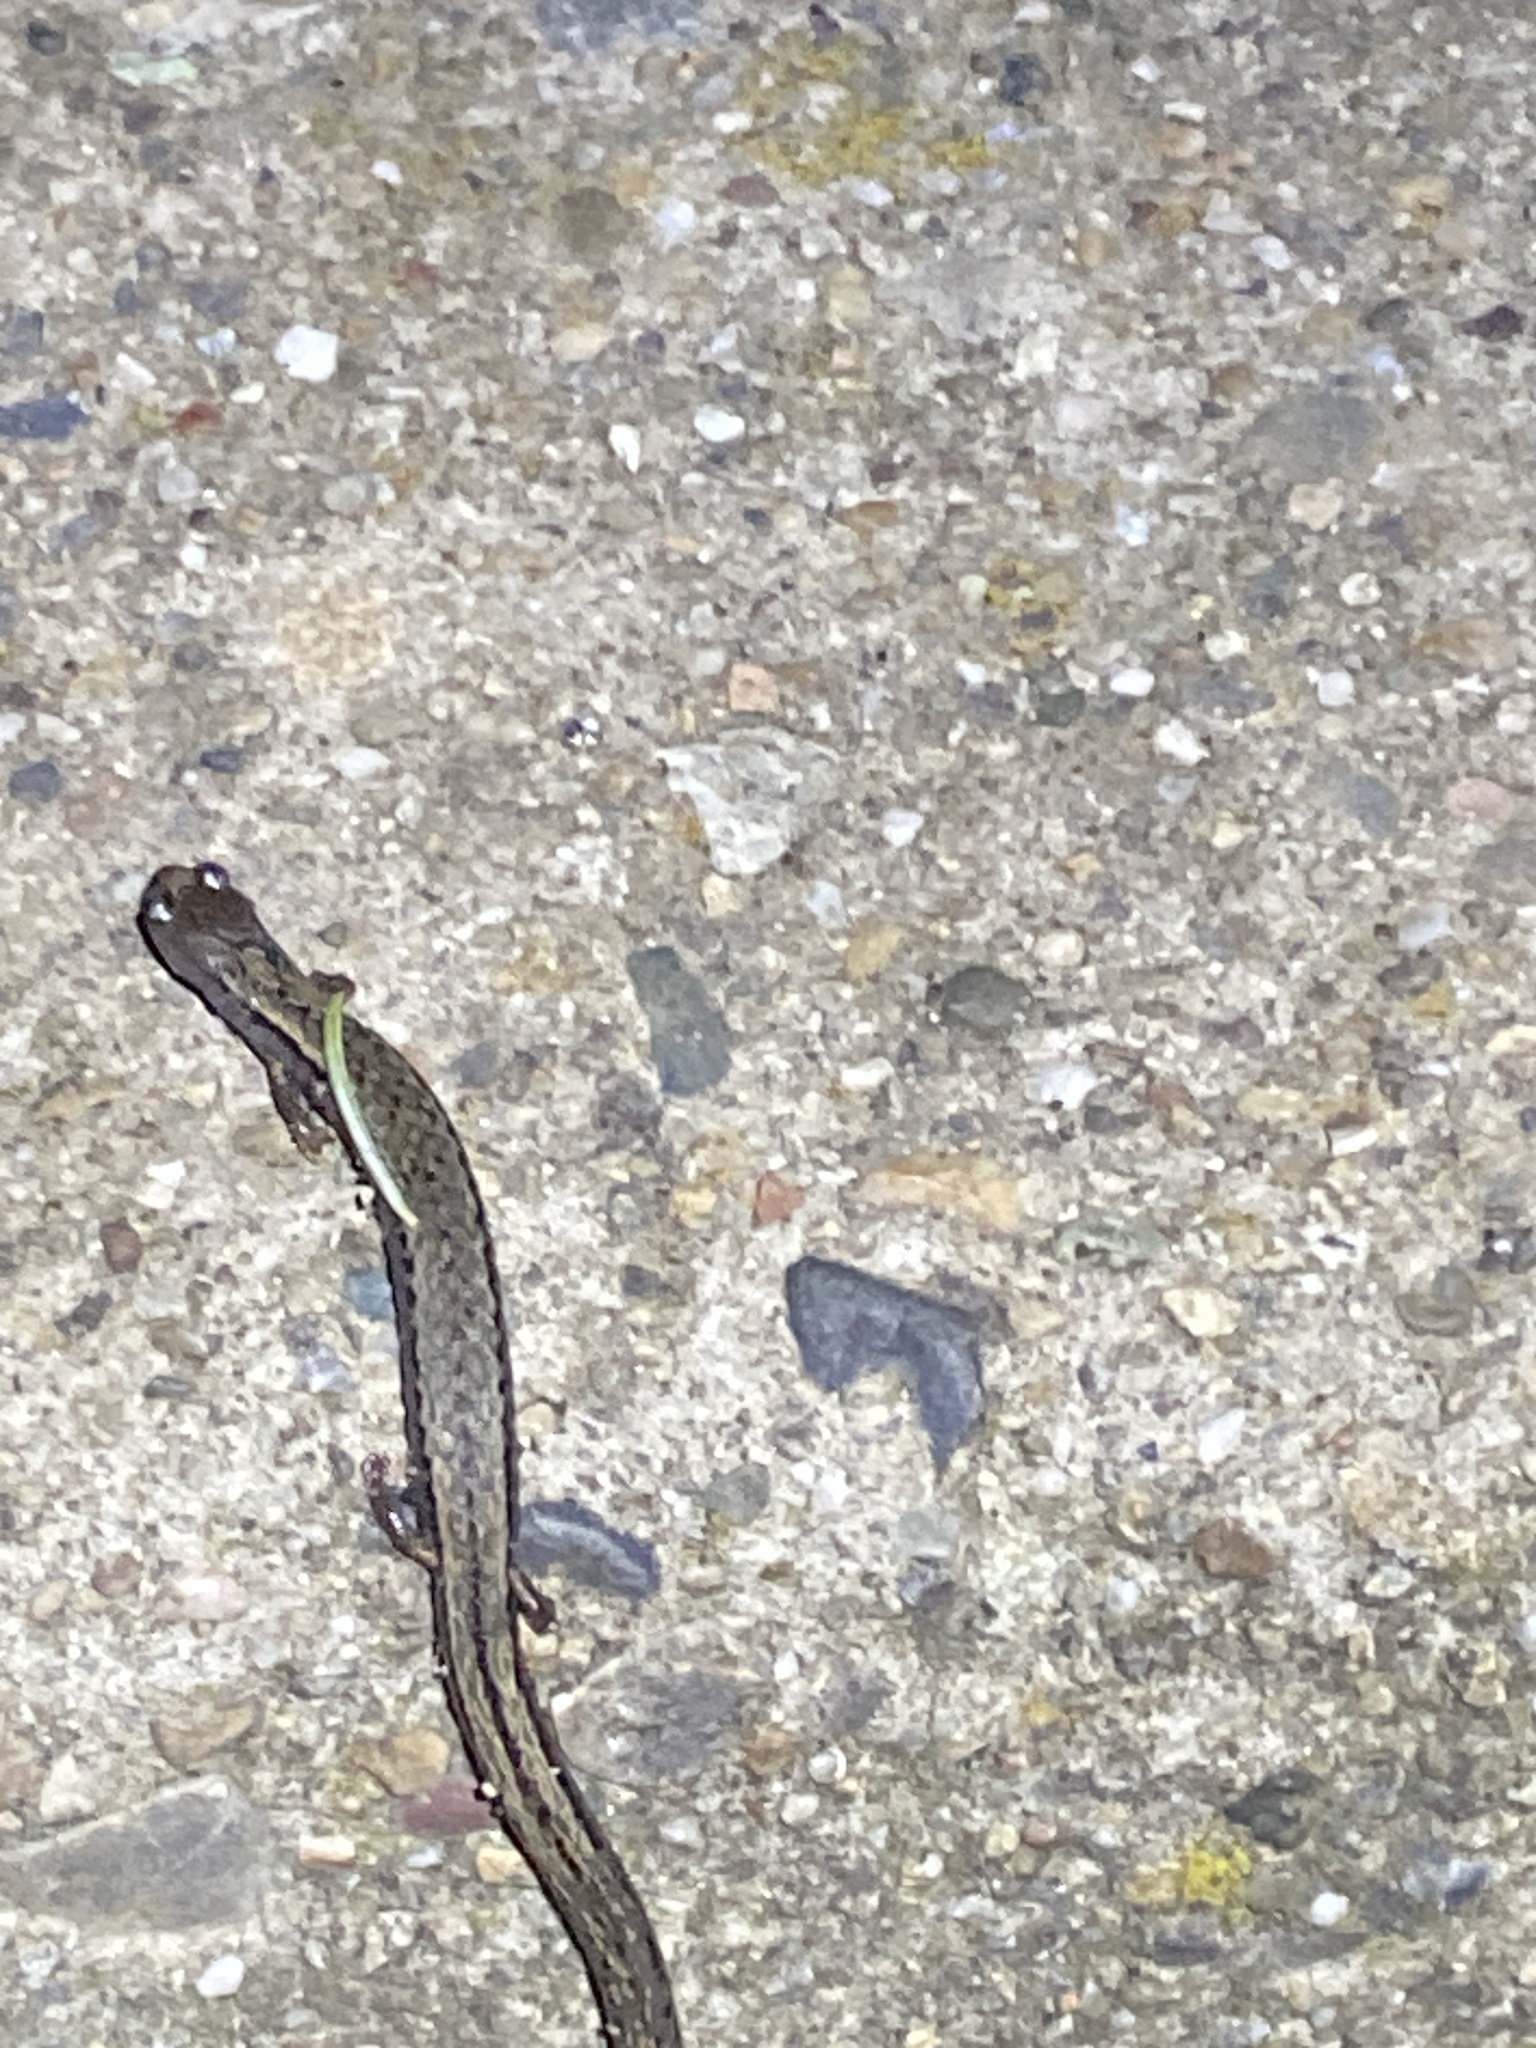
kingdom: Animalia
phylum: Chordata
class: Amphibia
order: Caudata
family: Plethodontidae
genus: Batrachoseps
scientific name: Batrachoseps attenuatus
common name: California slender salamander
